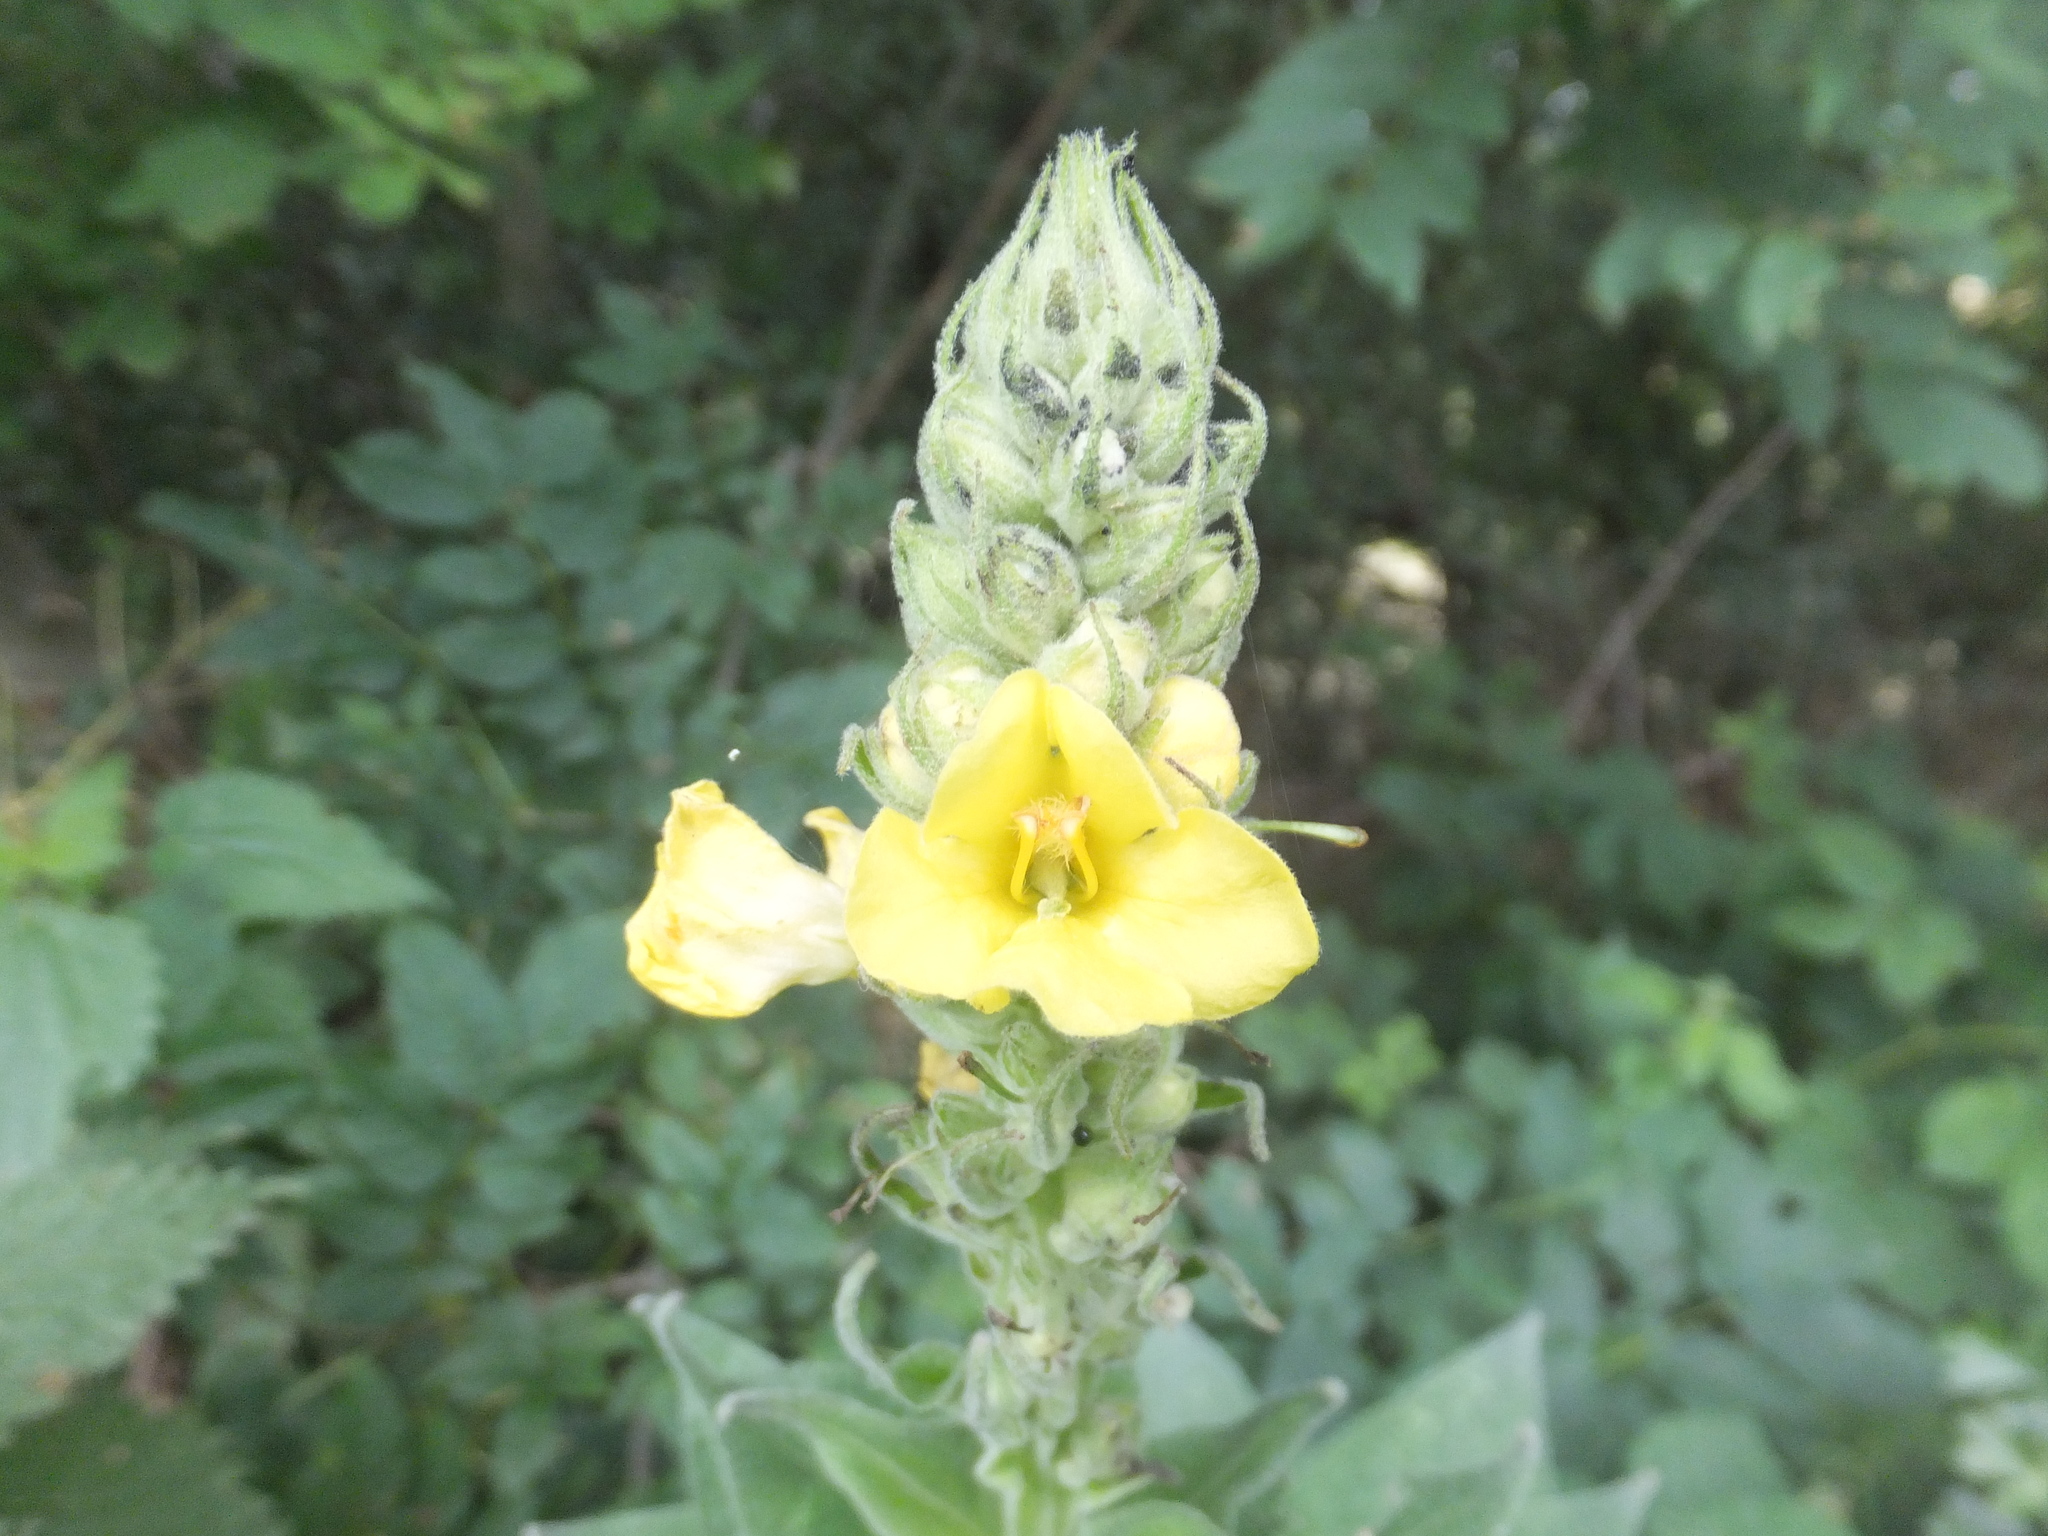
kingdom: Plantae
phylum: Tracheophyta
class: Magnoliopsida
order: Lamiales
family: Scrophulariaceae
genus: Verbascum
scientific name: Verbascum thapsus
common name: Common mullein
